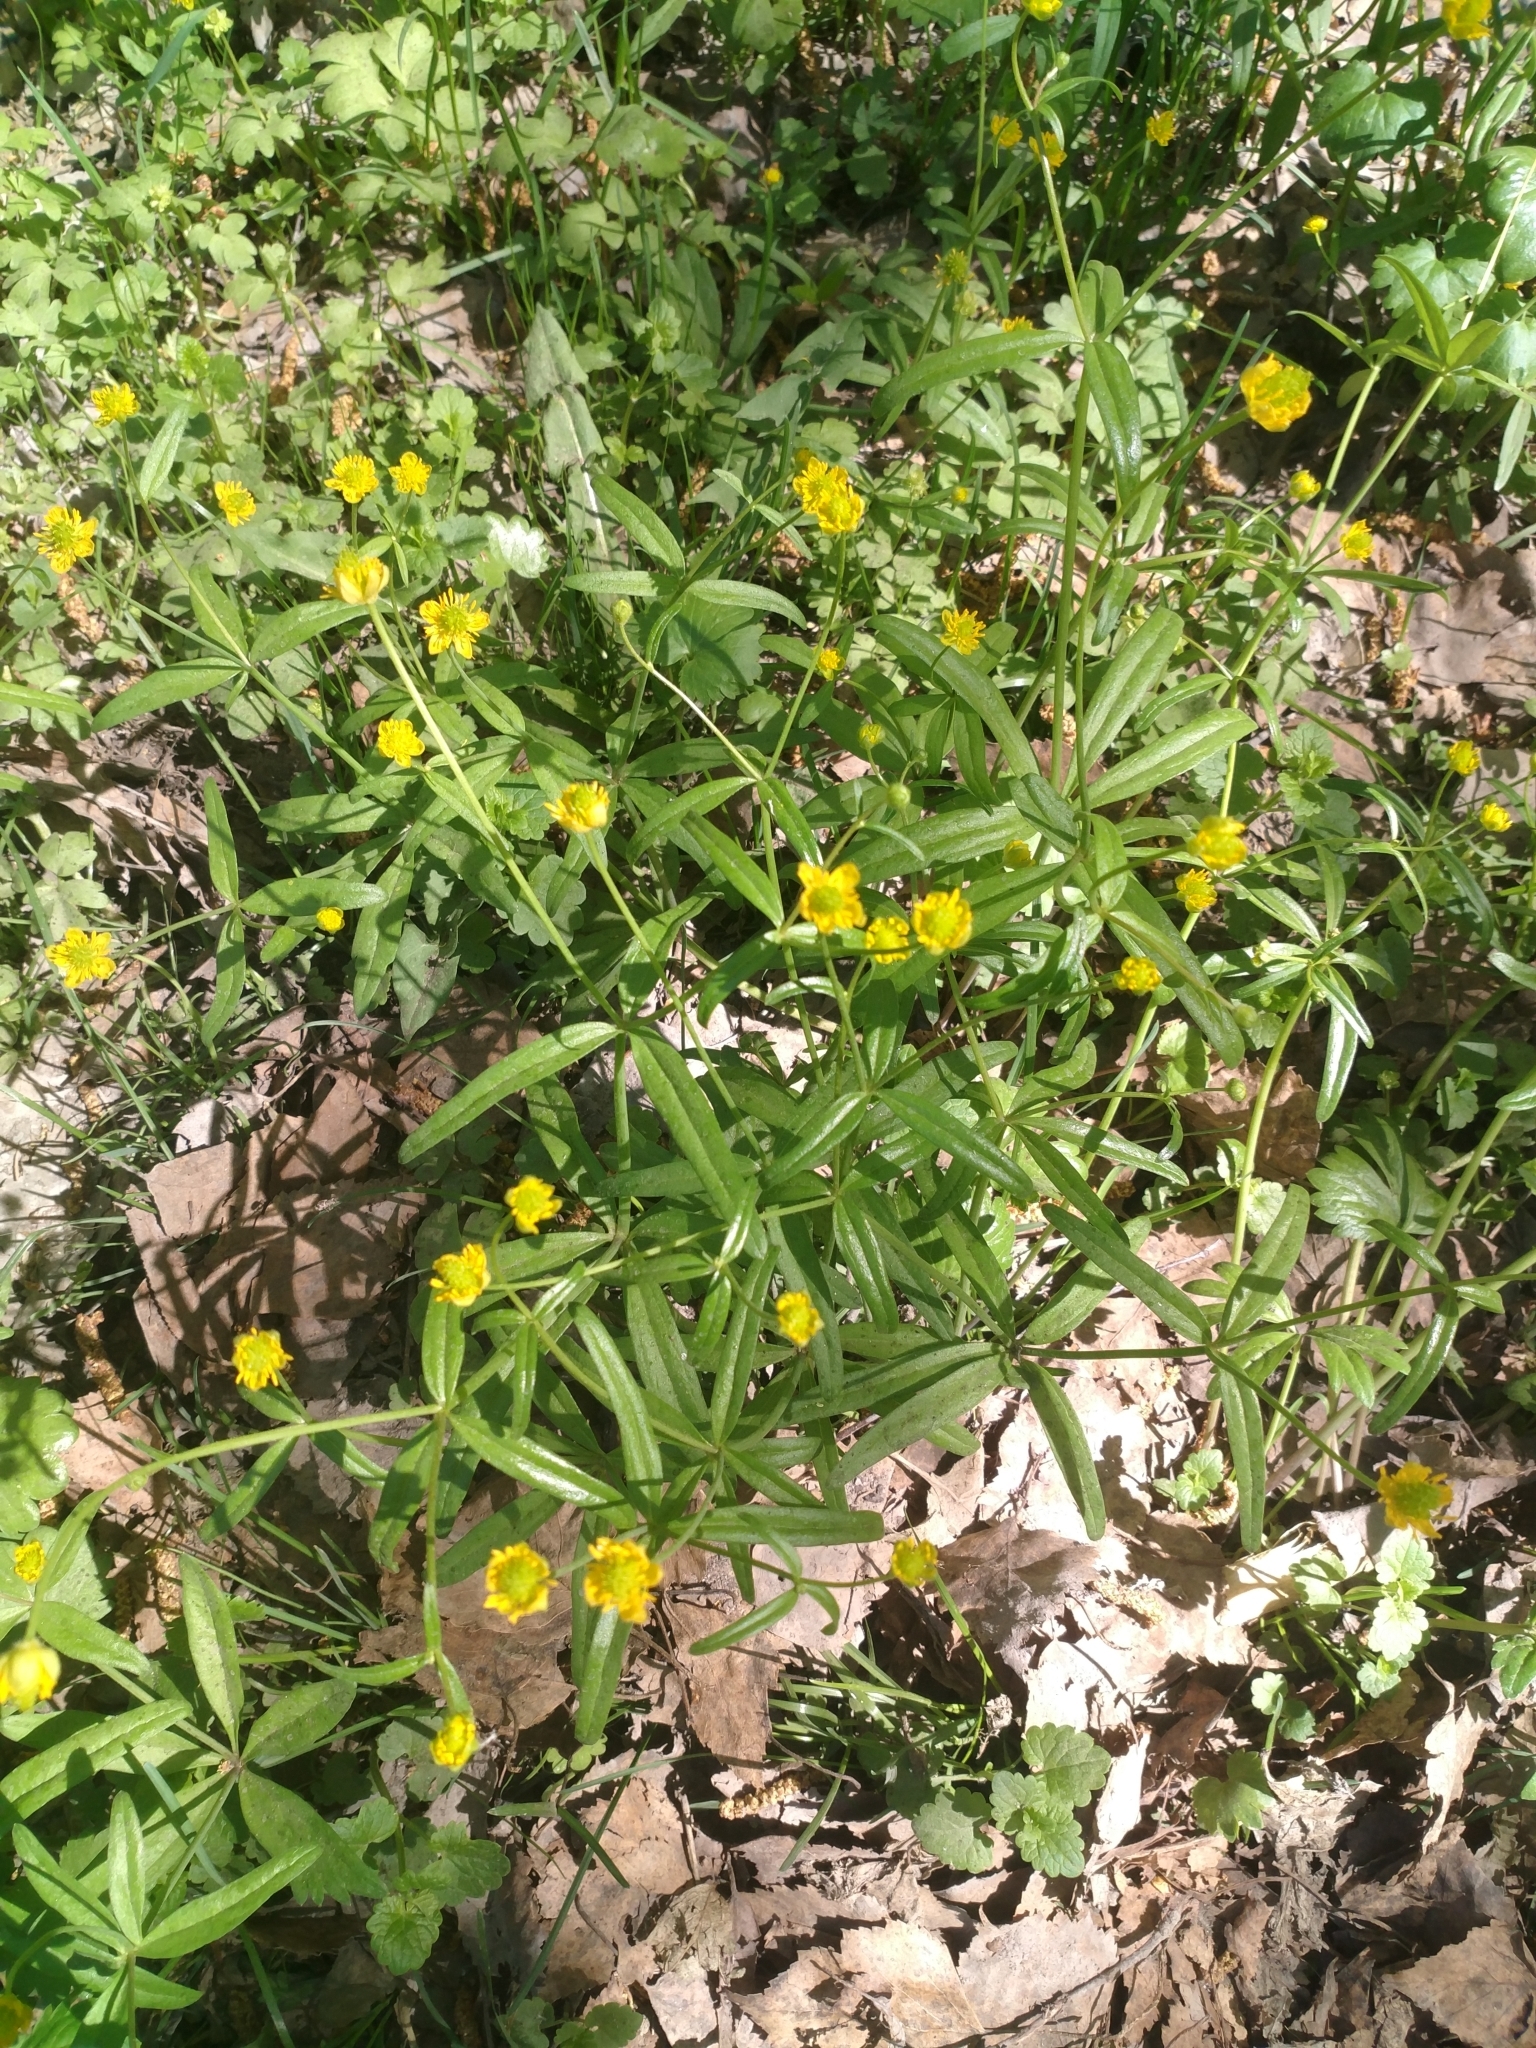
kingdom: Plantae
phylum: Tracheophyta
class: Magnoliopsida
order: Ranunculales
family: Ranunculaceae
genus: Ranunculus
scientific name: Ranunculus monophyllus
